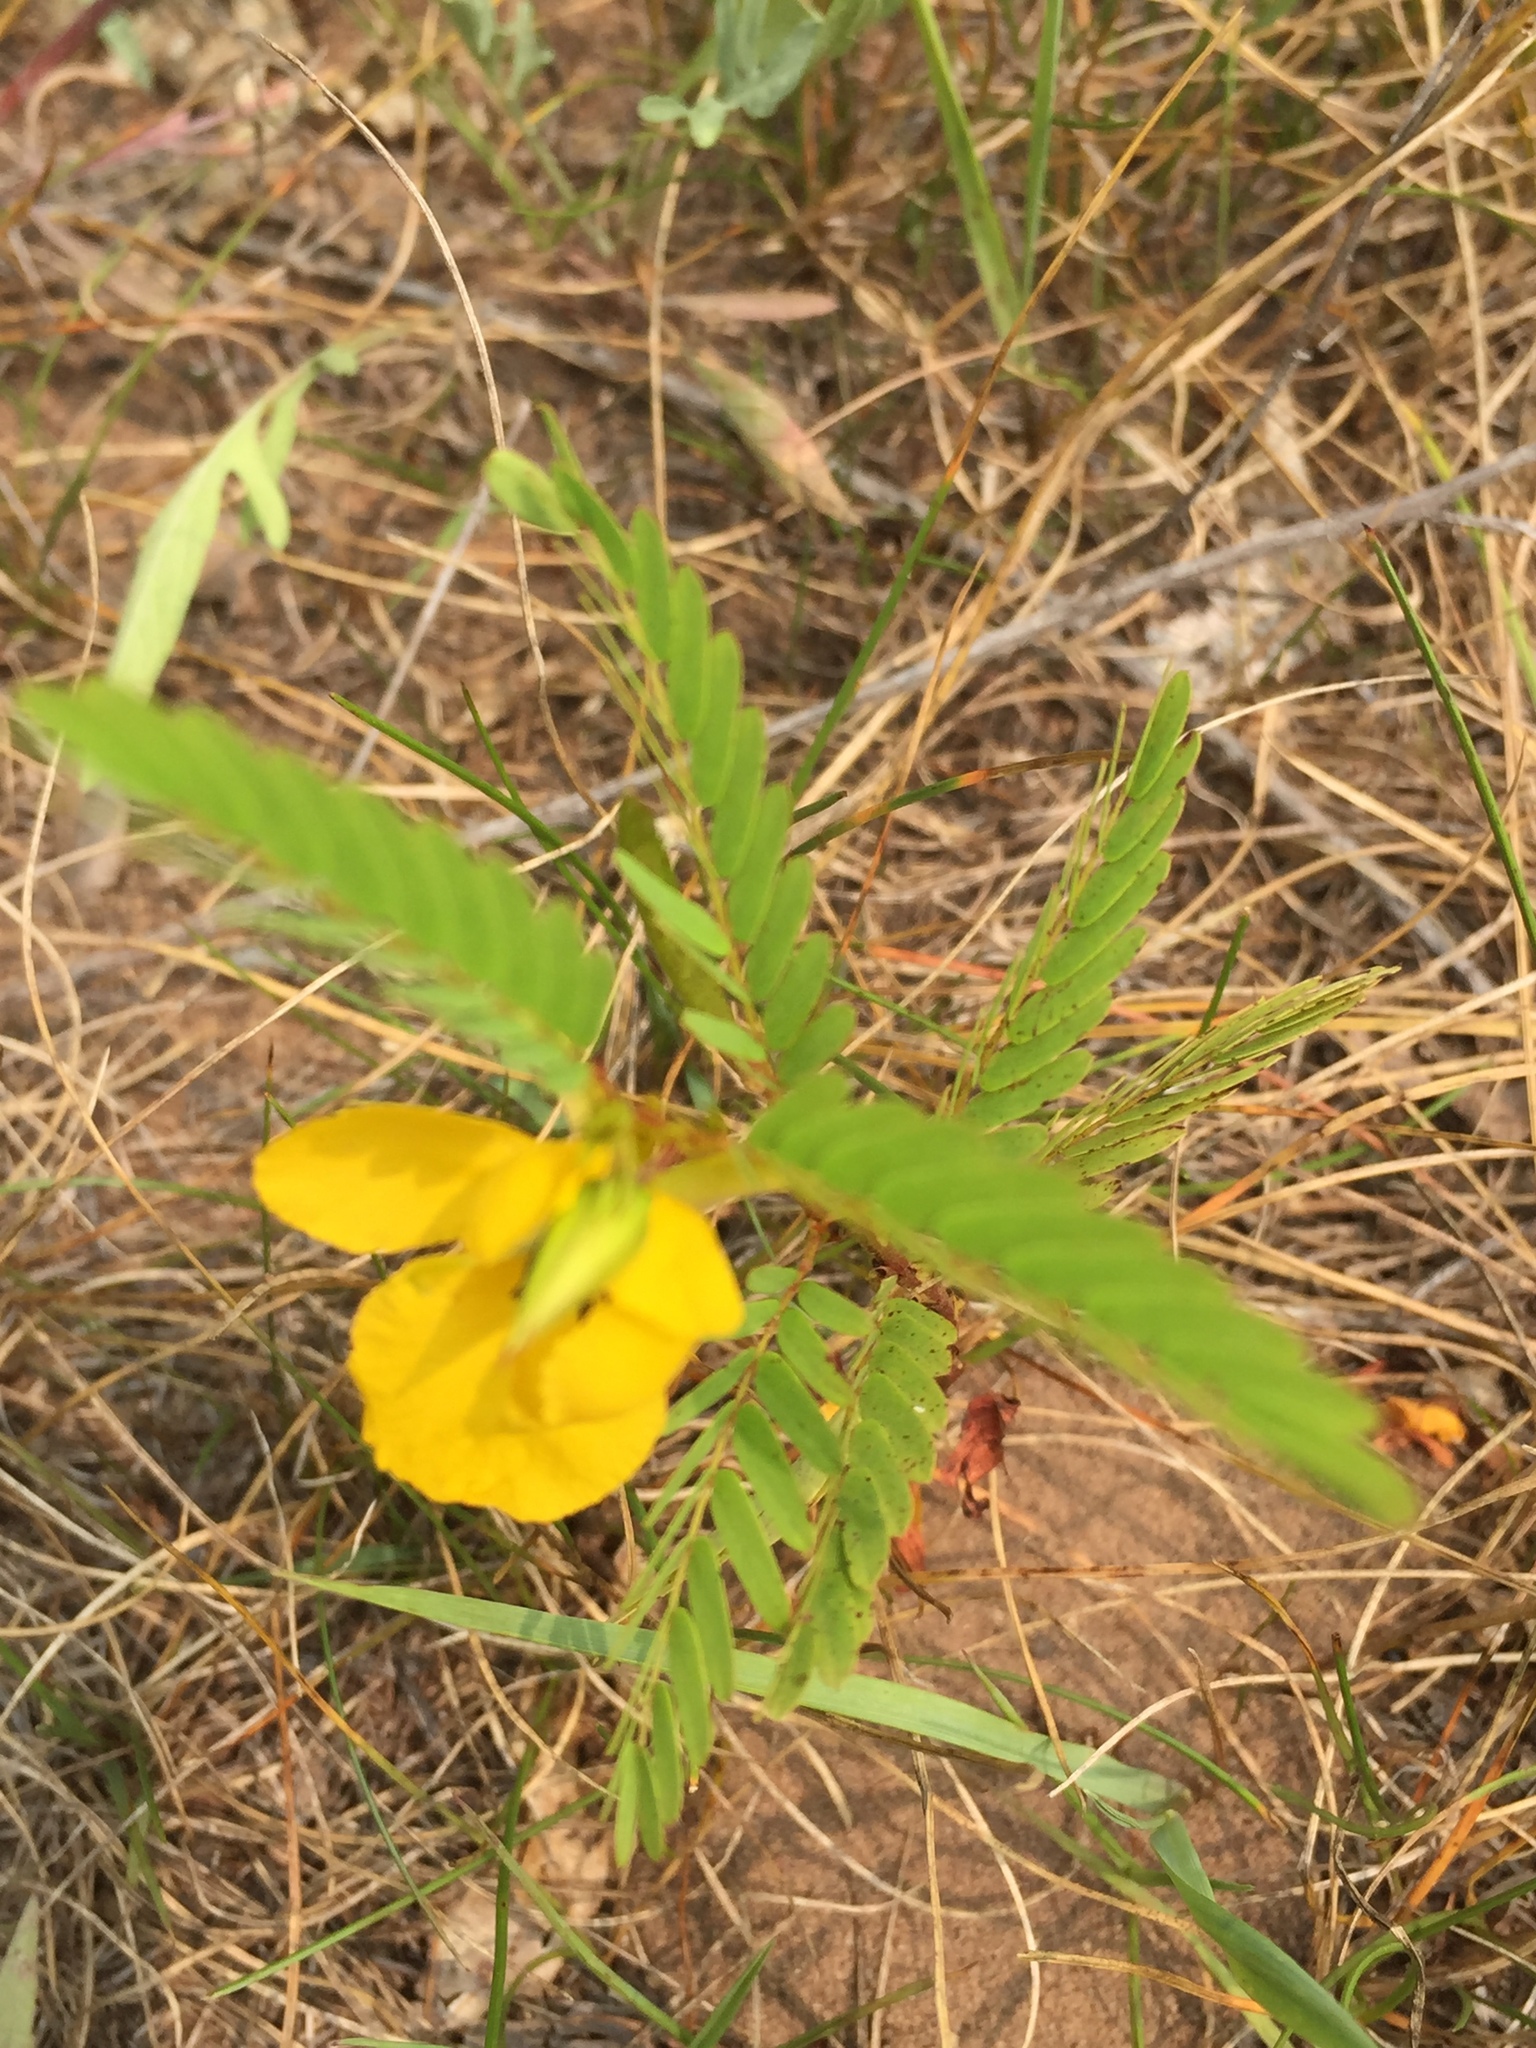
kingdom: Plantae
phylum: Tracheophyta
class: Magnoliopsida
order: Fabales
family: Fabaceae
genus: Chamaecrista
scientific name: Chamaecrista fasciculata
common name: Golden cassia
